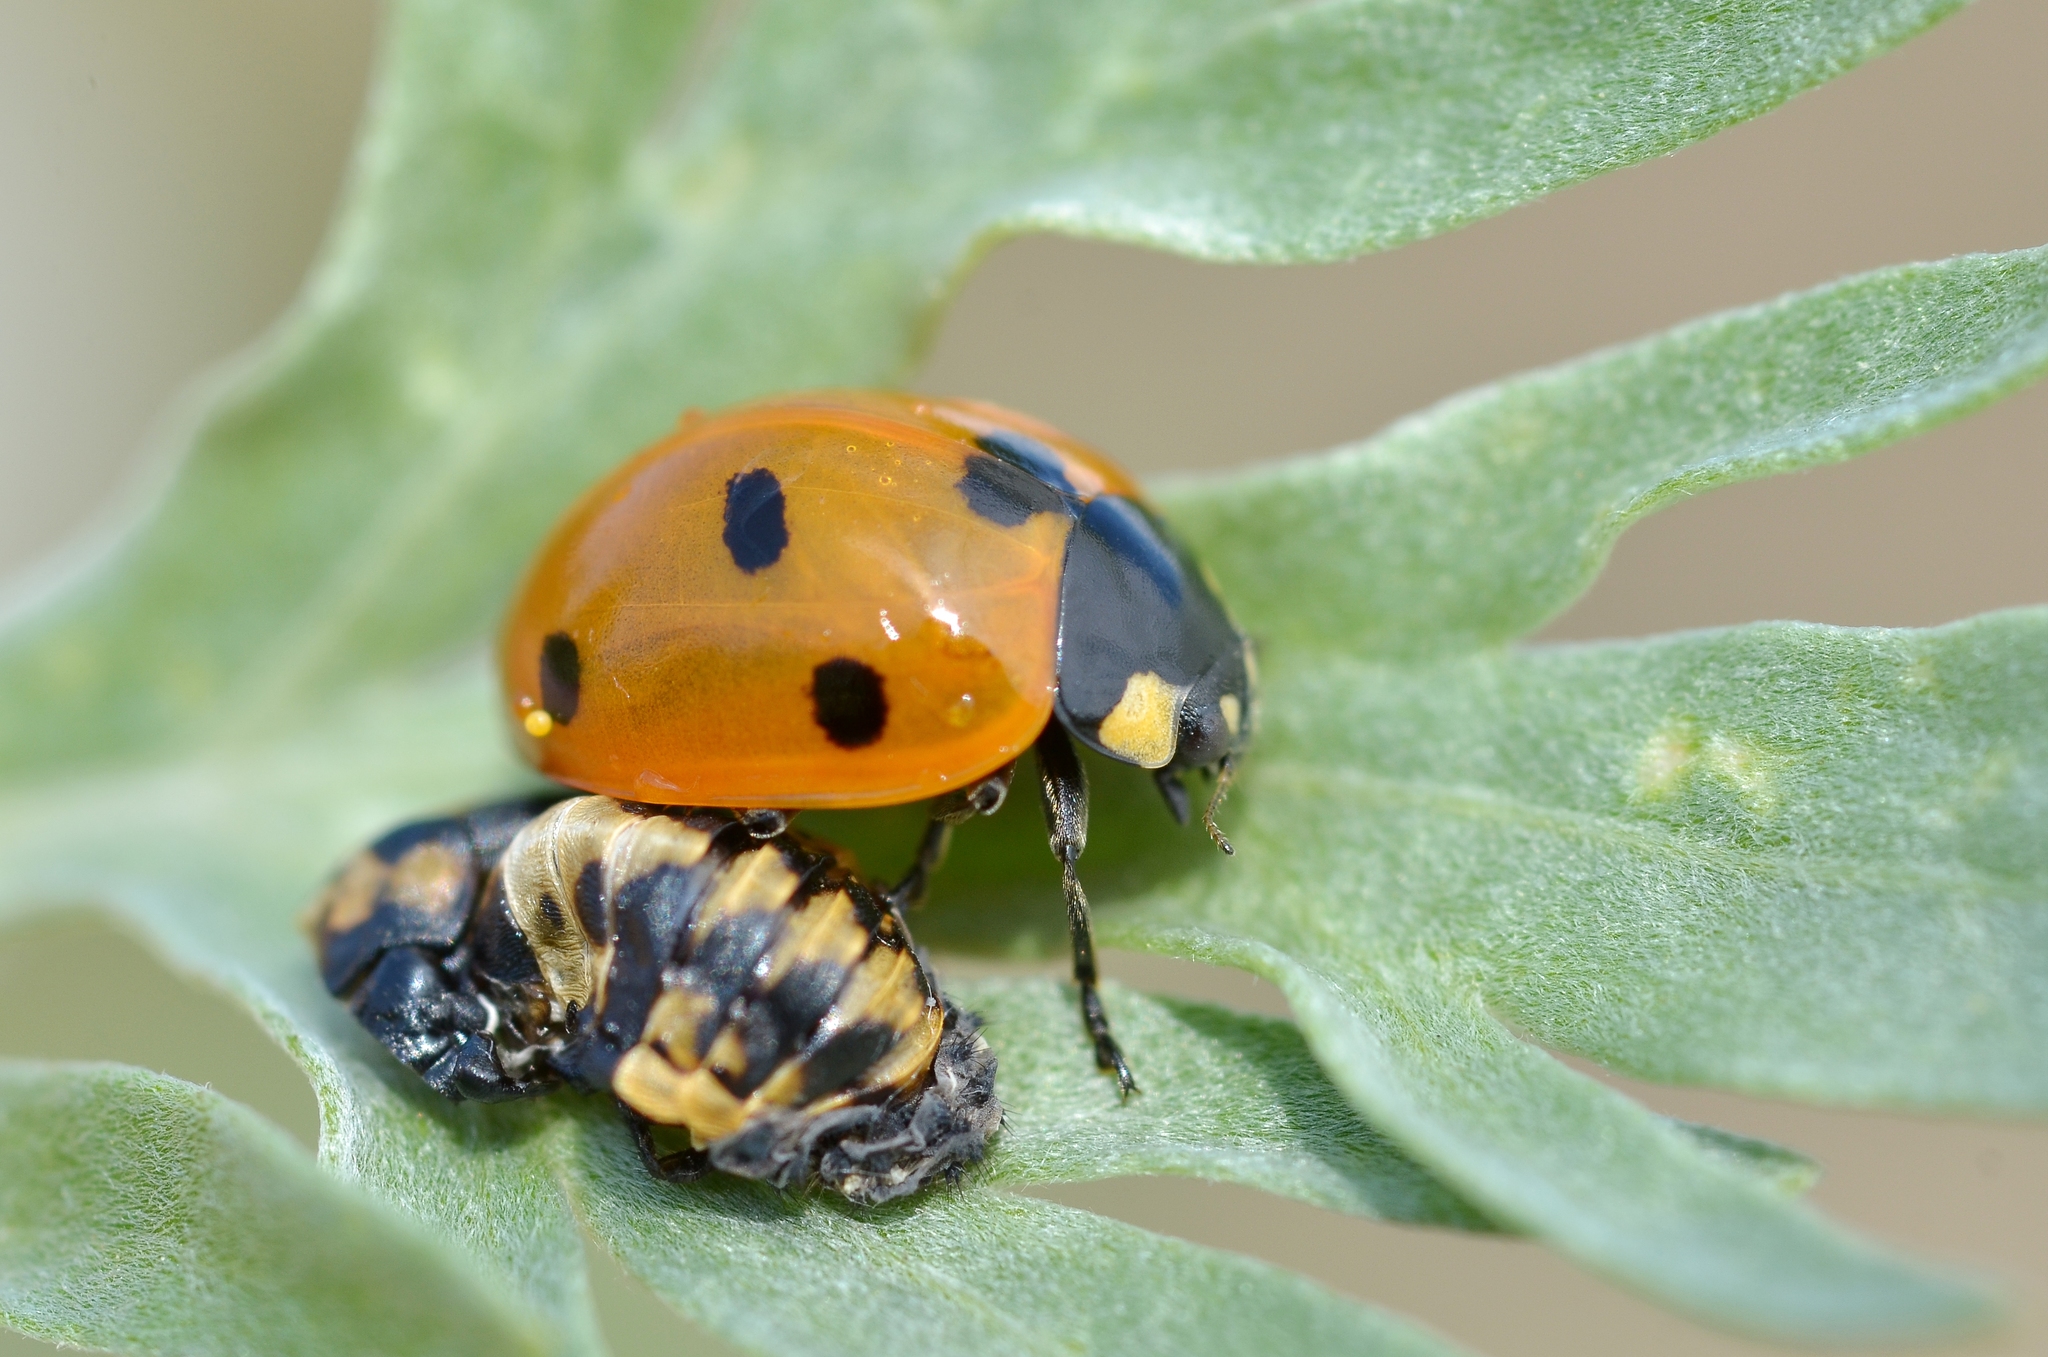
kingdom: Animalia
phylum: Arthropoda
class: Insecta
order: Coleoptera
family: Coccinellidae
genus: Coccinella
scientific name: Coccinella septempunctata
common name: Sevenspotted lady beetle
